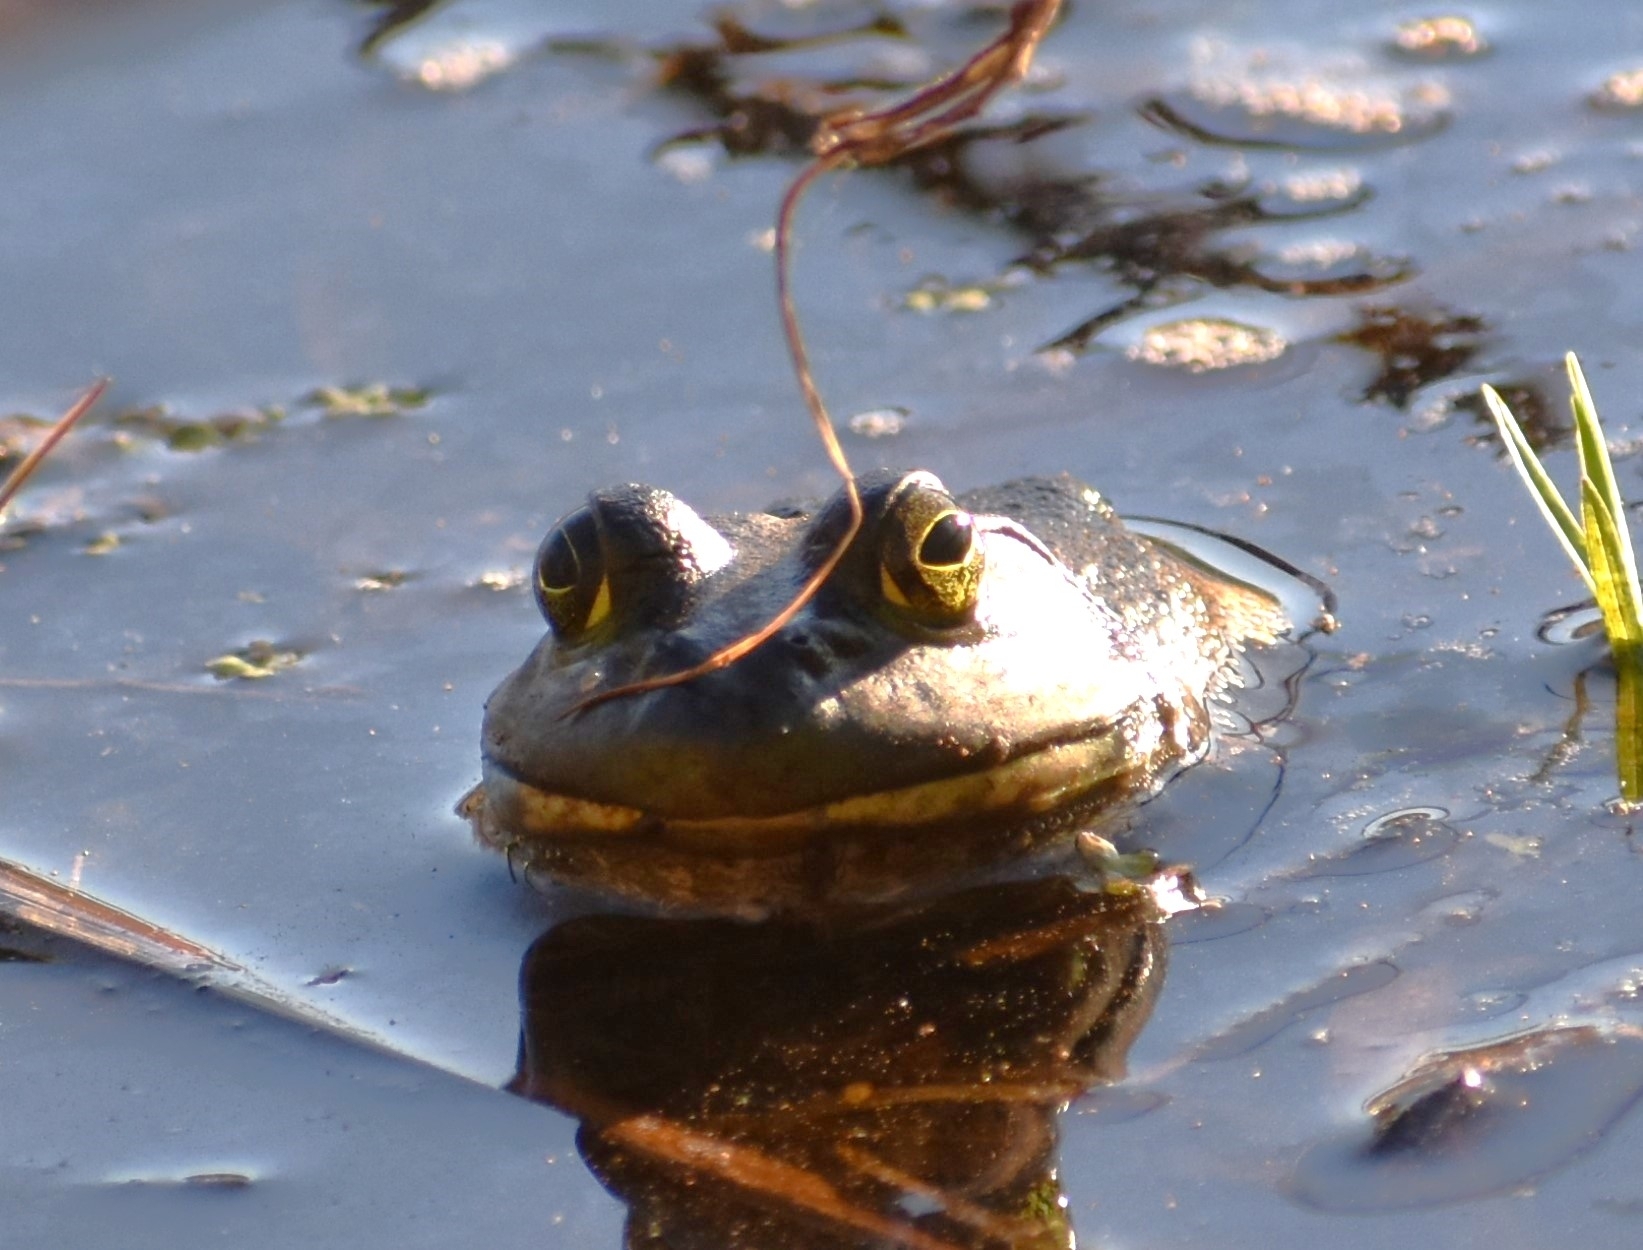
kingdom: Animalia
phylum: Chordata
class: Amphibia
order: Anura
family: Ranidae
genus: Lithobates
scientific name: Lithobates catesbeianus
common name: American bullfrog
